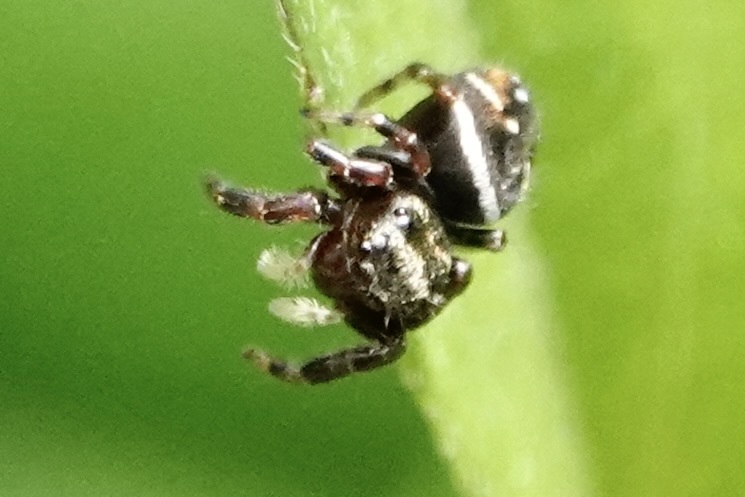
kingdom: Animalia
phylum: Arthropoda
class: Arachnida
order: Araneae
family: Salticidae
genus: Phidippus
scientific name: Phidippus clarus
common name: Brilliant jumping spider
